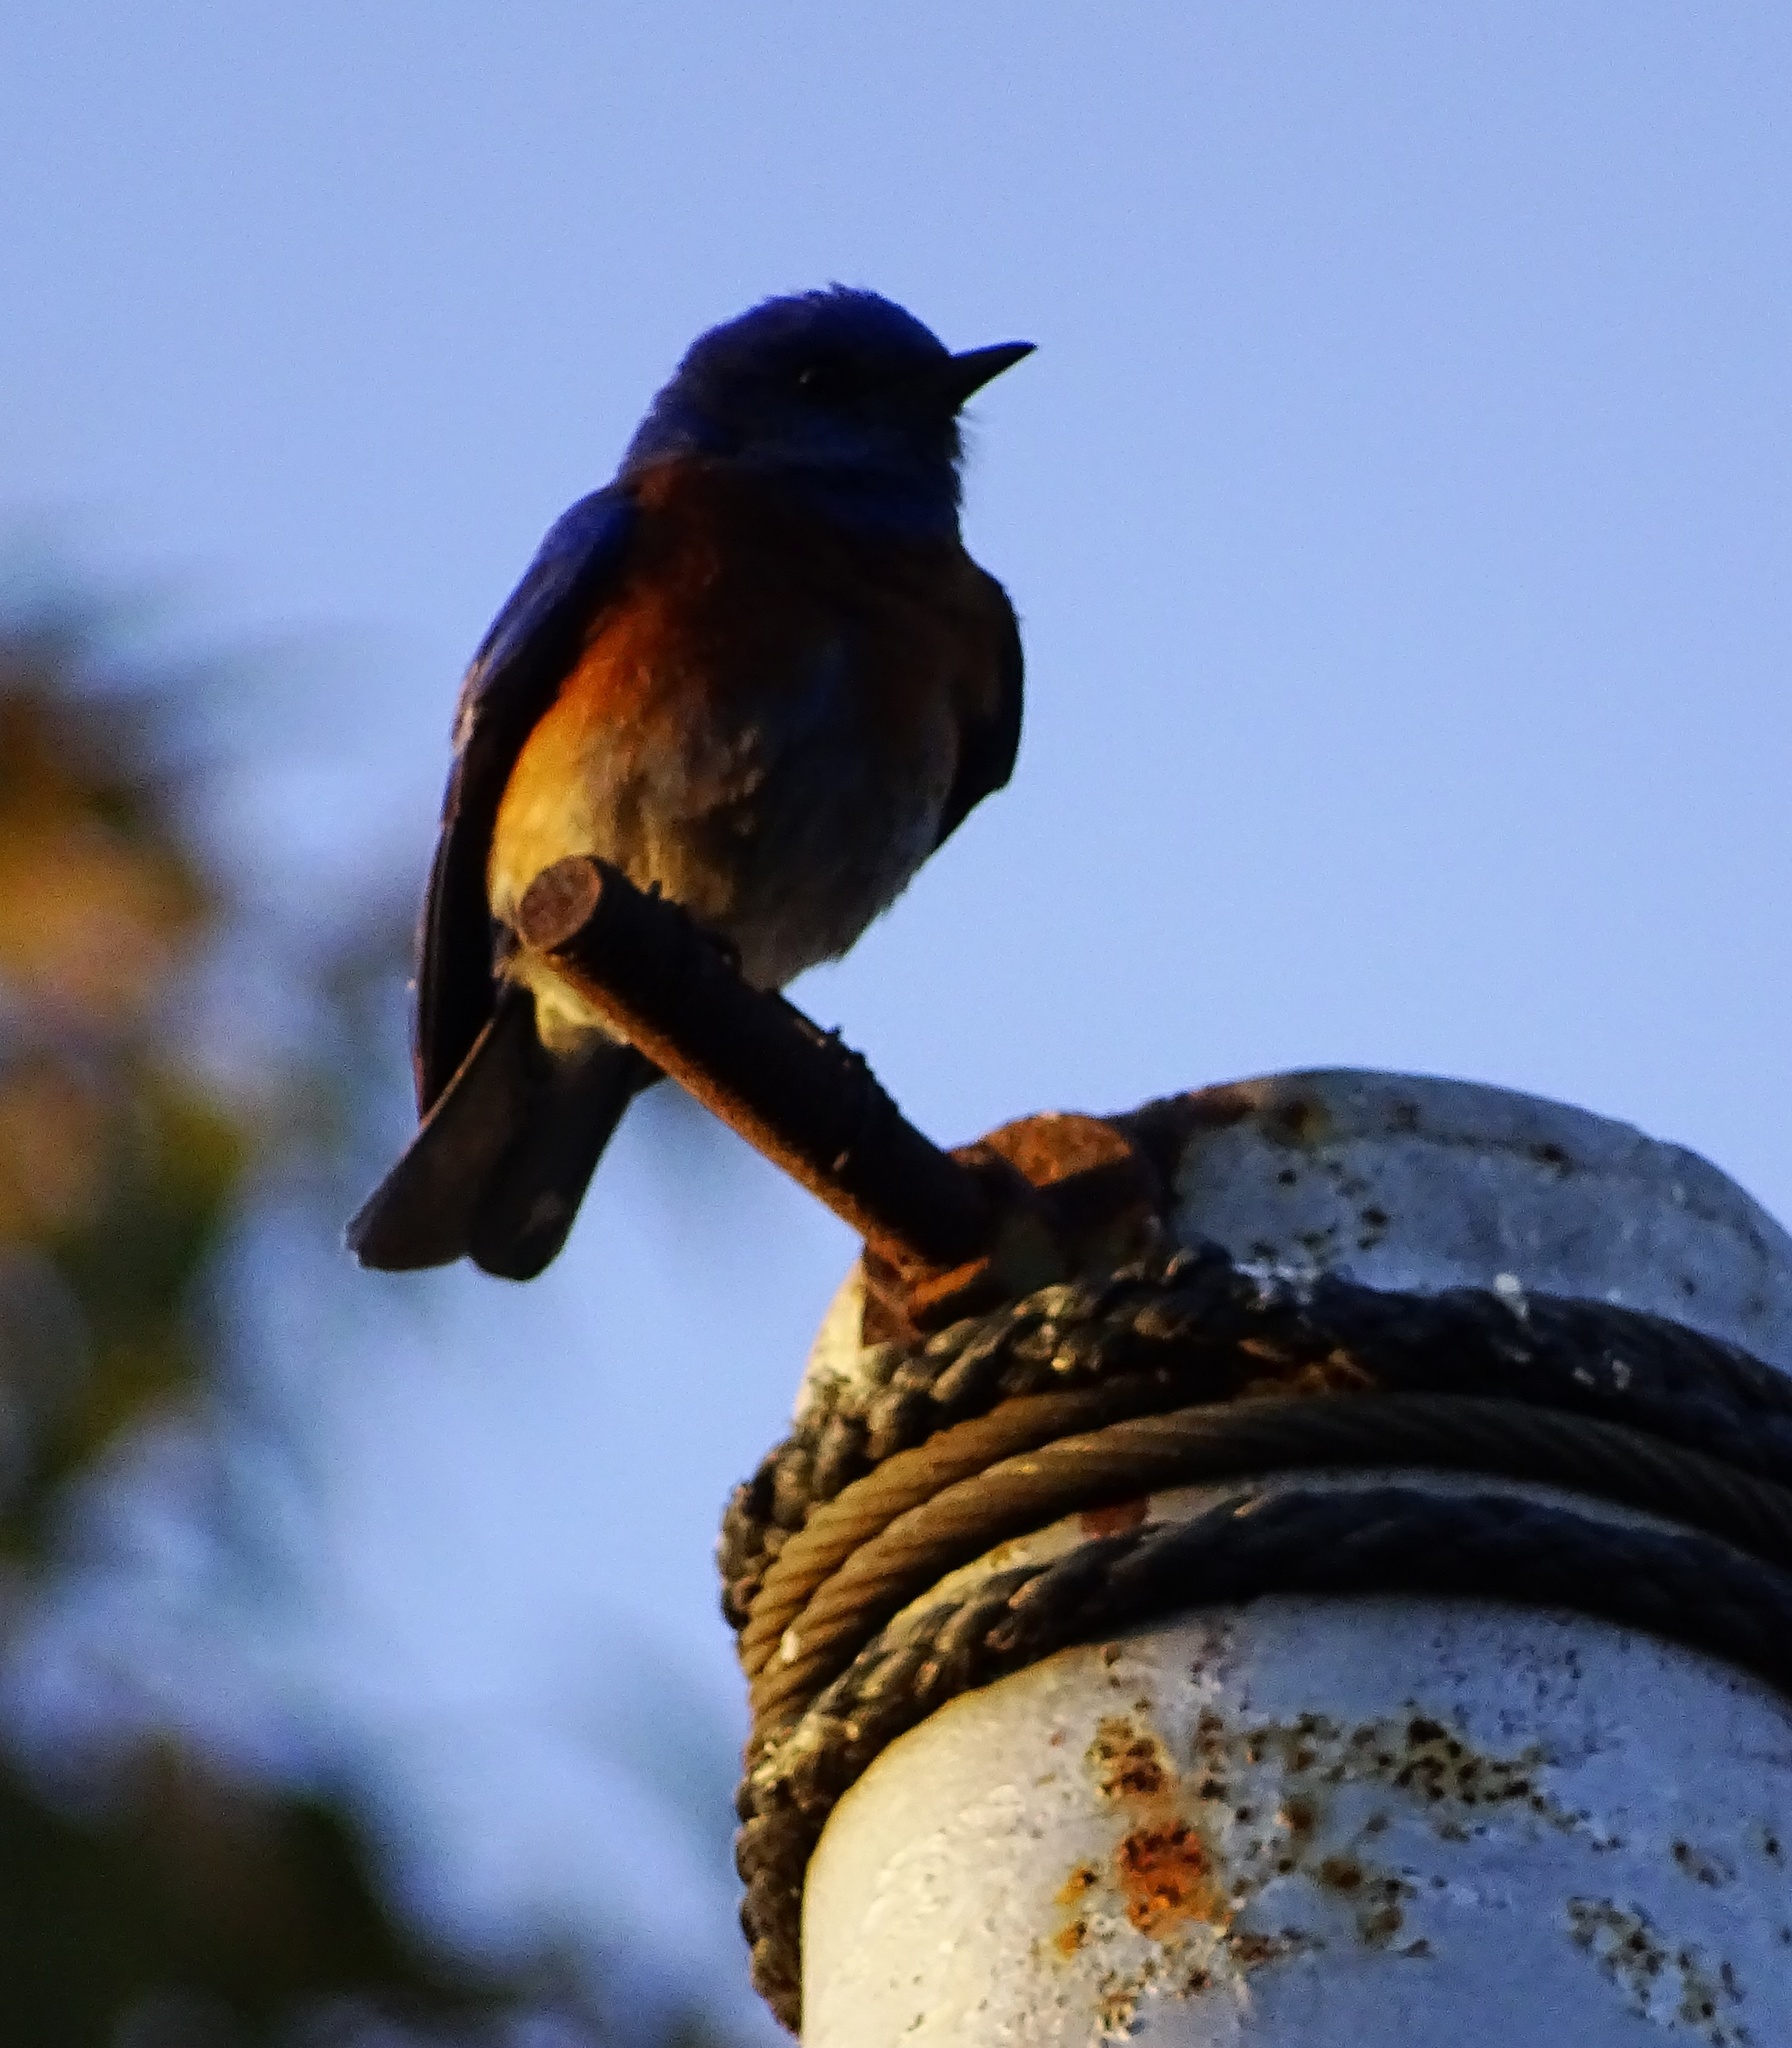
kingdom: Animalia
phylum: Chordata
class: Aves
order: Passeriformes
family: Turdidae
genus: Sialia
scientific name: Sialia mexicana
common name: Western bluebird
